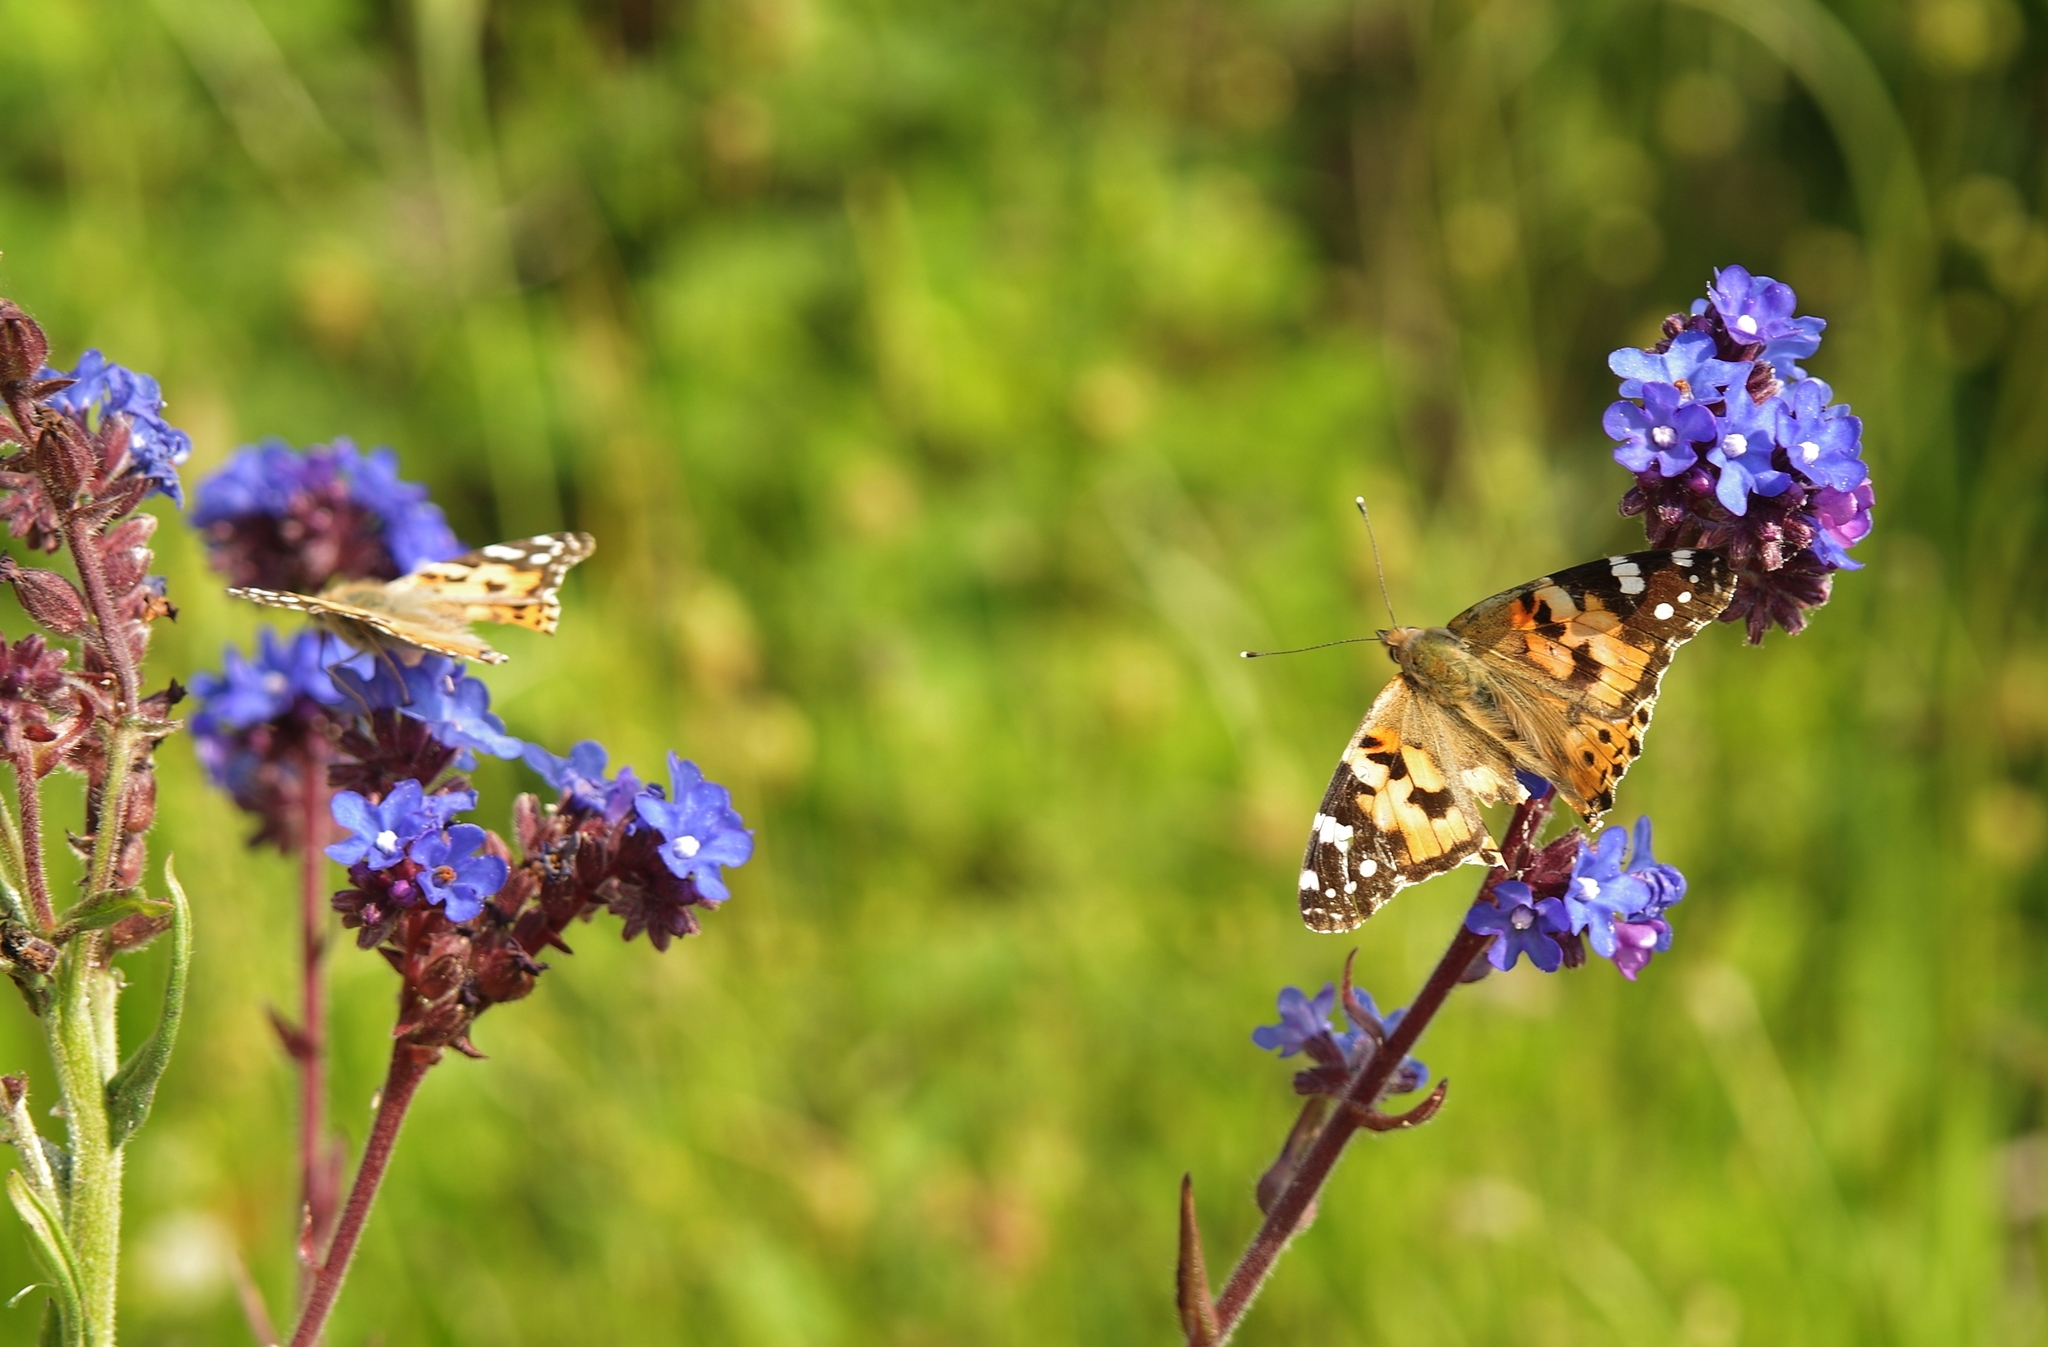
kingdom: Animalia
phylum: Arthropoda
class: Insecta
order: Lepidoptera
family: Nymphalidae
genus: Vanessa
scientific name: Vanessa cardui
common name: Painted lady
